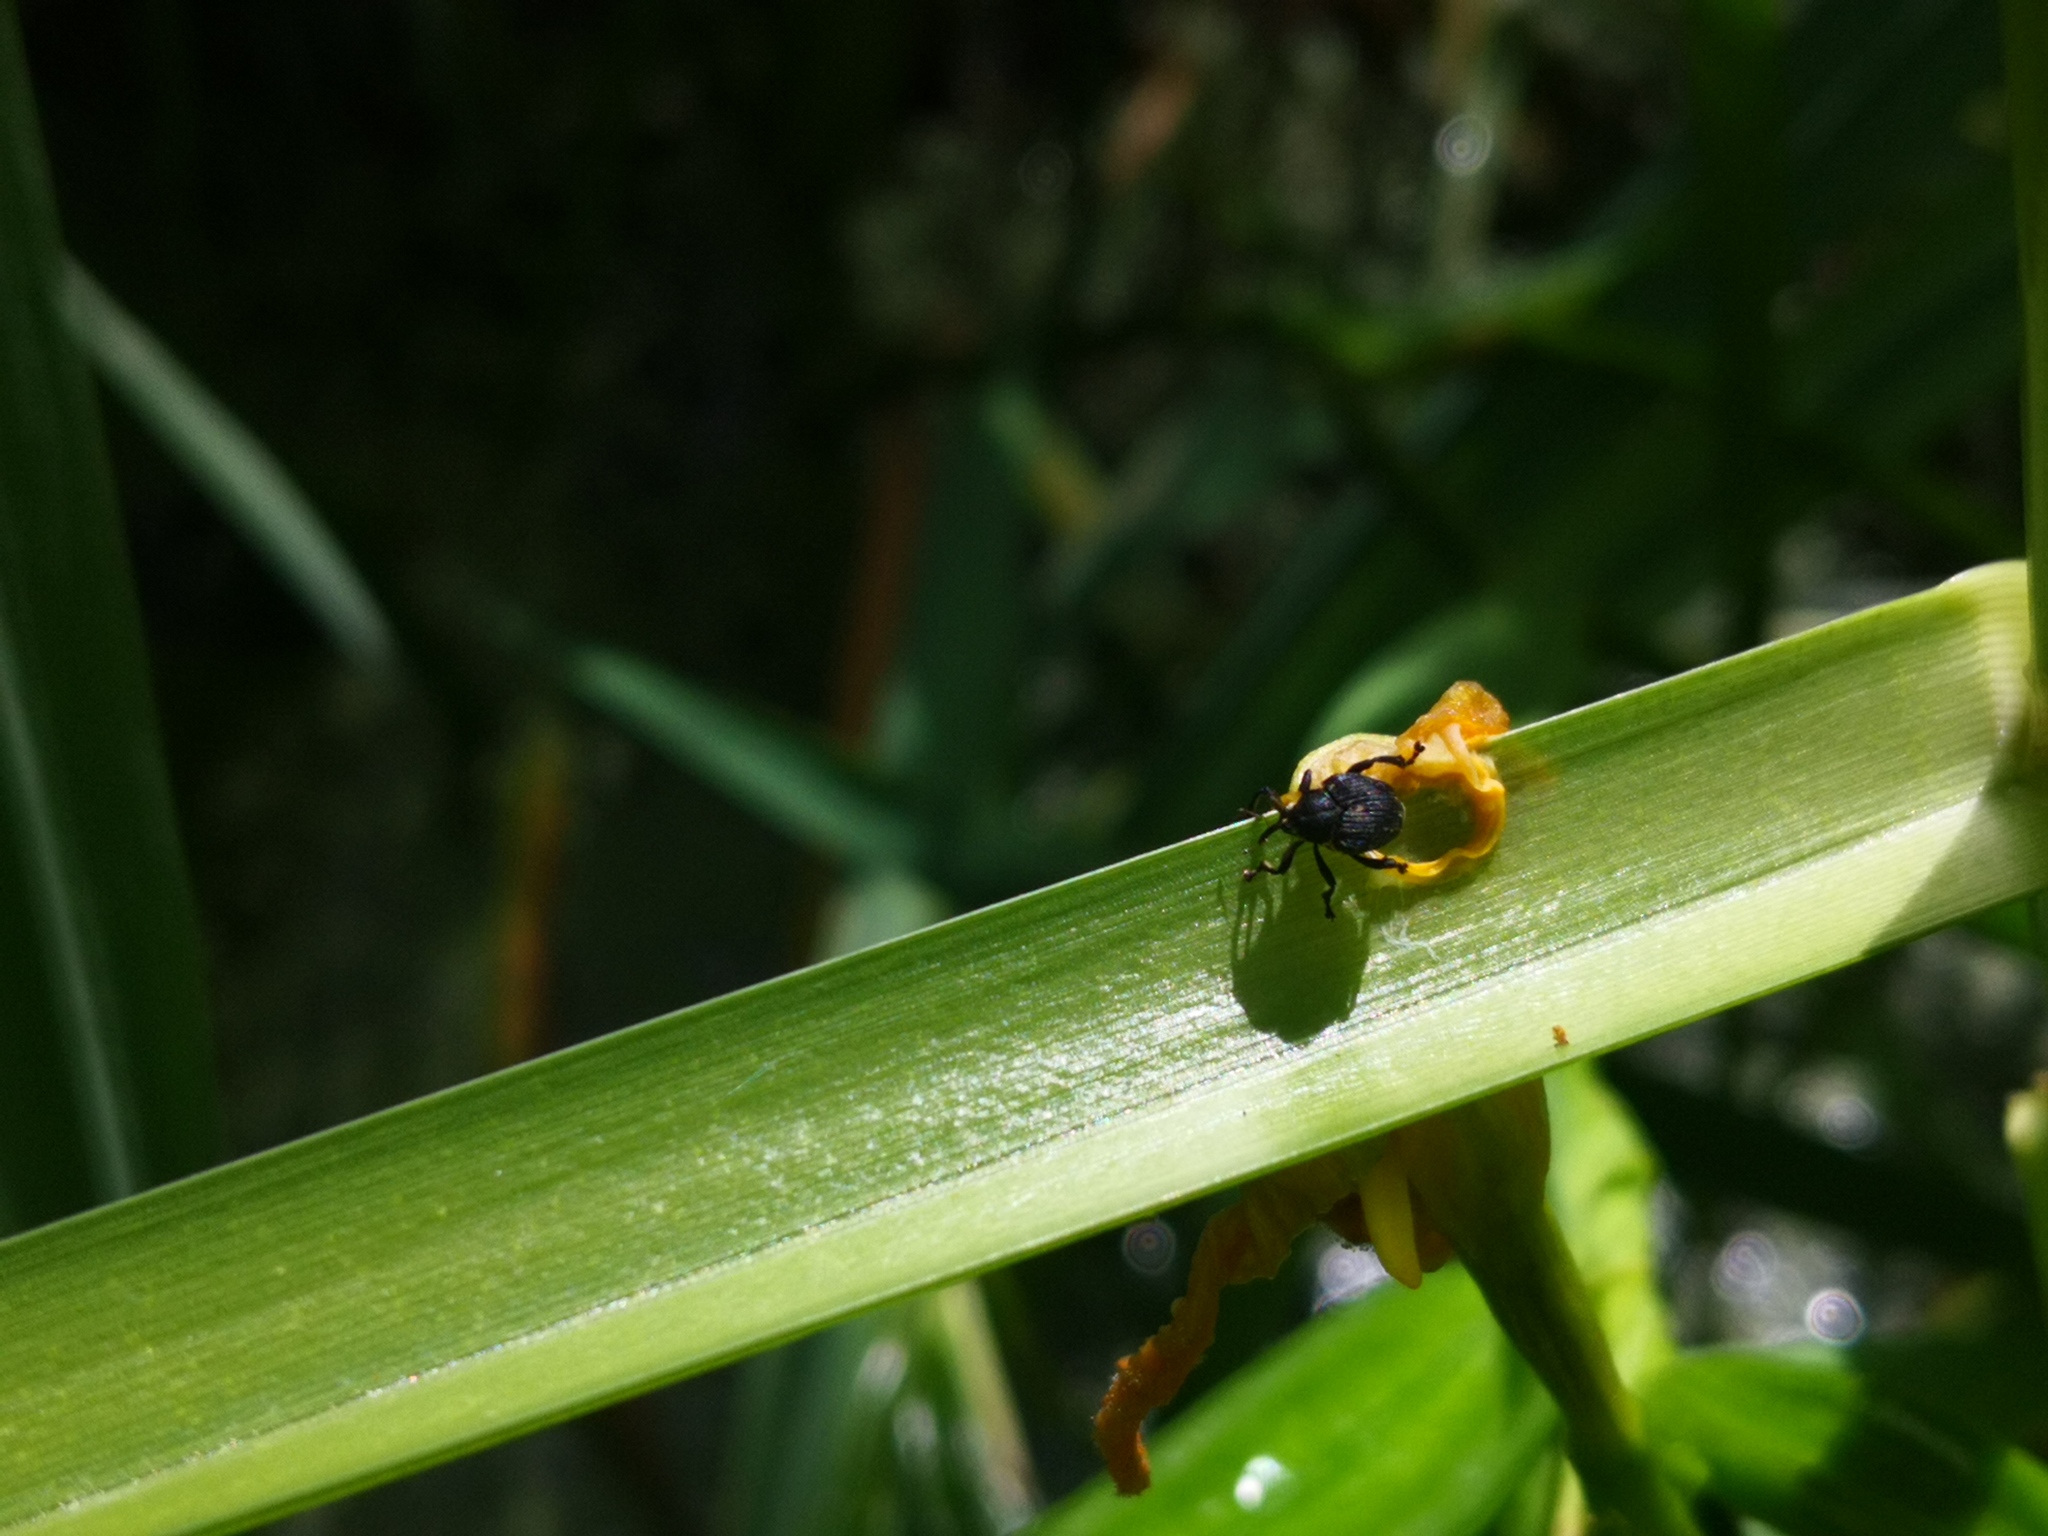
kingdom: Animalia
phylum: Arthropoda
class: Insecta
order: Coleoptera
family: Curculionidae
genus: Mononychus
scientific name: Mononychus punctumalbum
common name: Iris weevil
